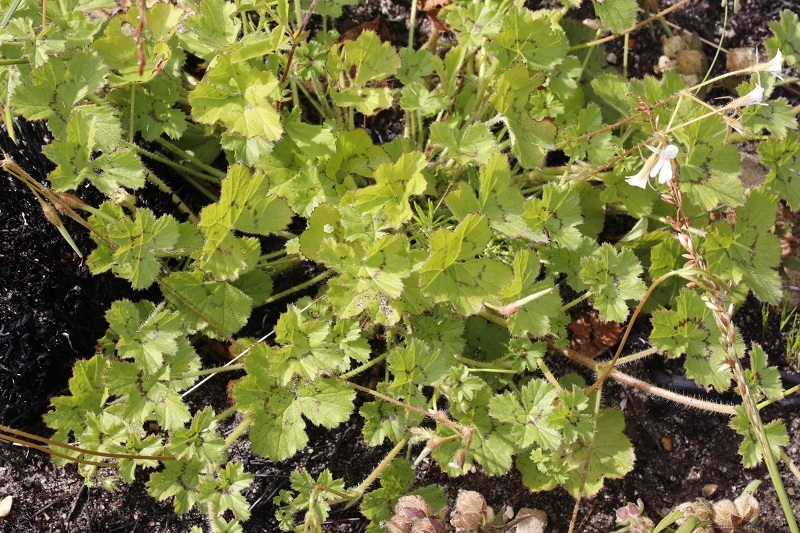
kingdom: Plantae
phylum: Tracheophyta
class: Magnoliopsida
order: Geraniales
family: Geraniaceae
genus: Pelargonium
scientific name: Pelargonium elongatum
